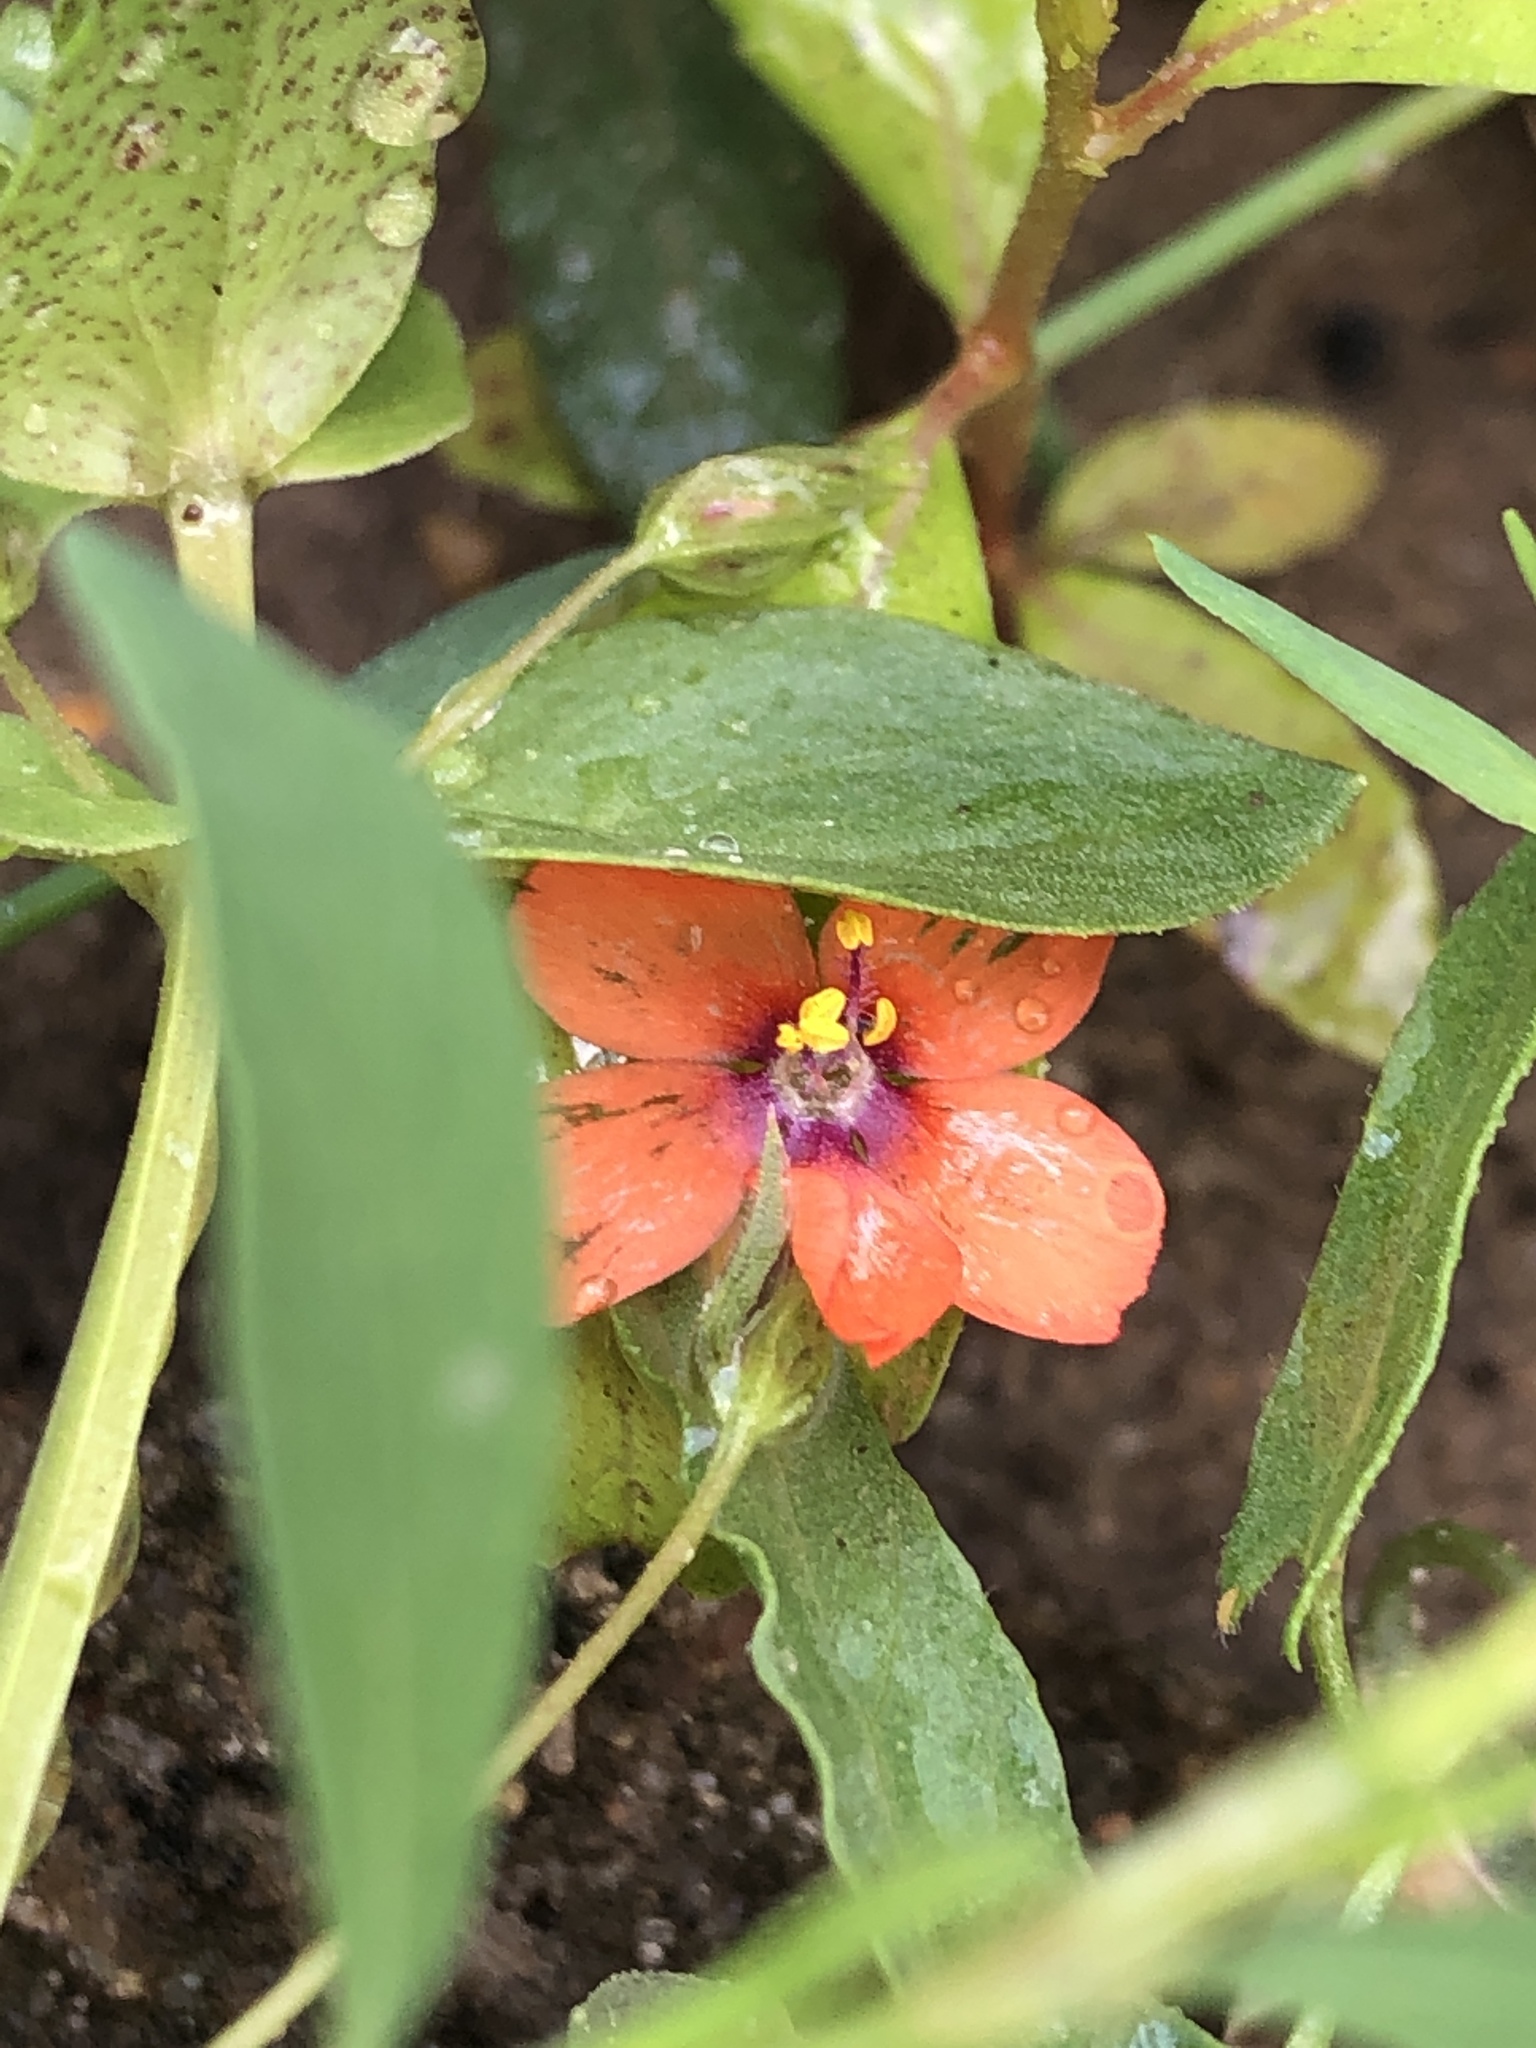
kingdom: Plantae
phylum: Tracheophyta
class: Magnoliopsida
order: Ericales
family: Primulaceae
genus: Lysimachia
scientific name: Lysimachia arvensis
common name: Scarlet pimpernel
